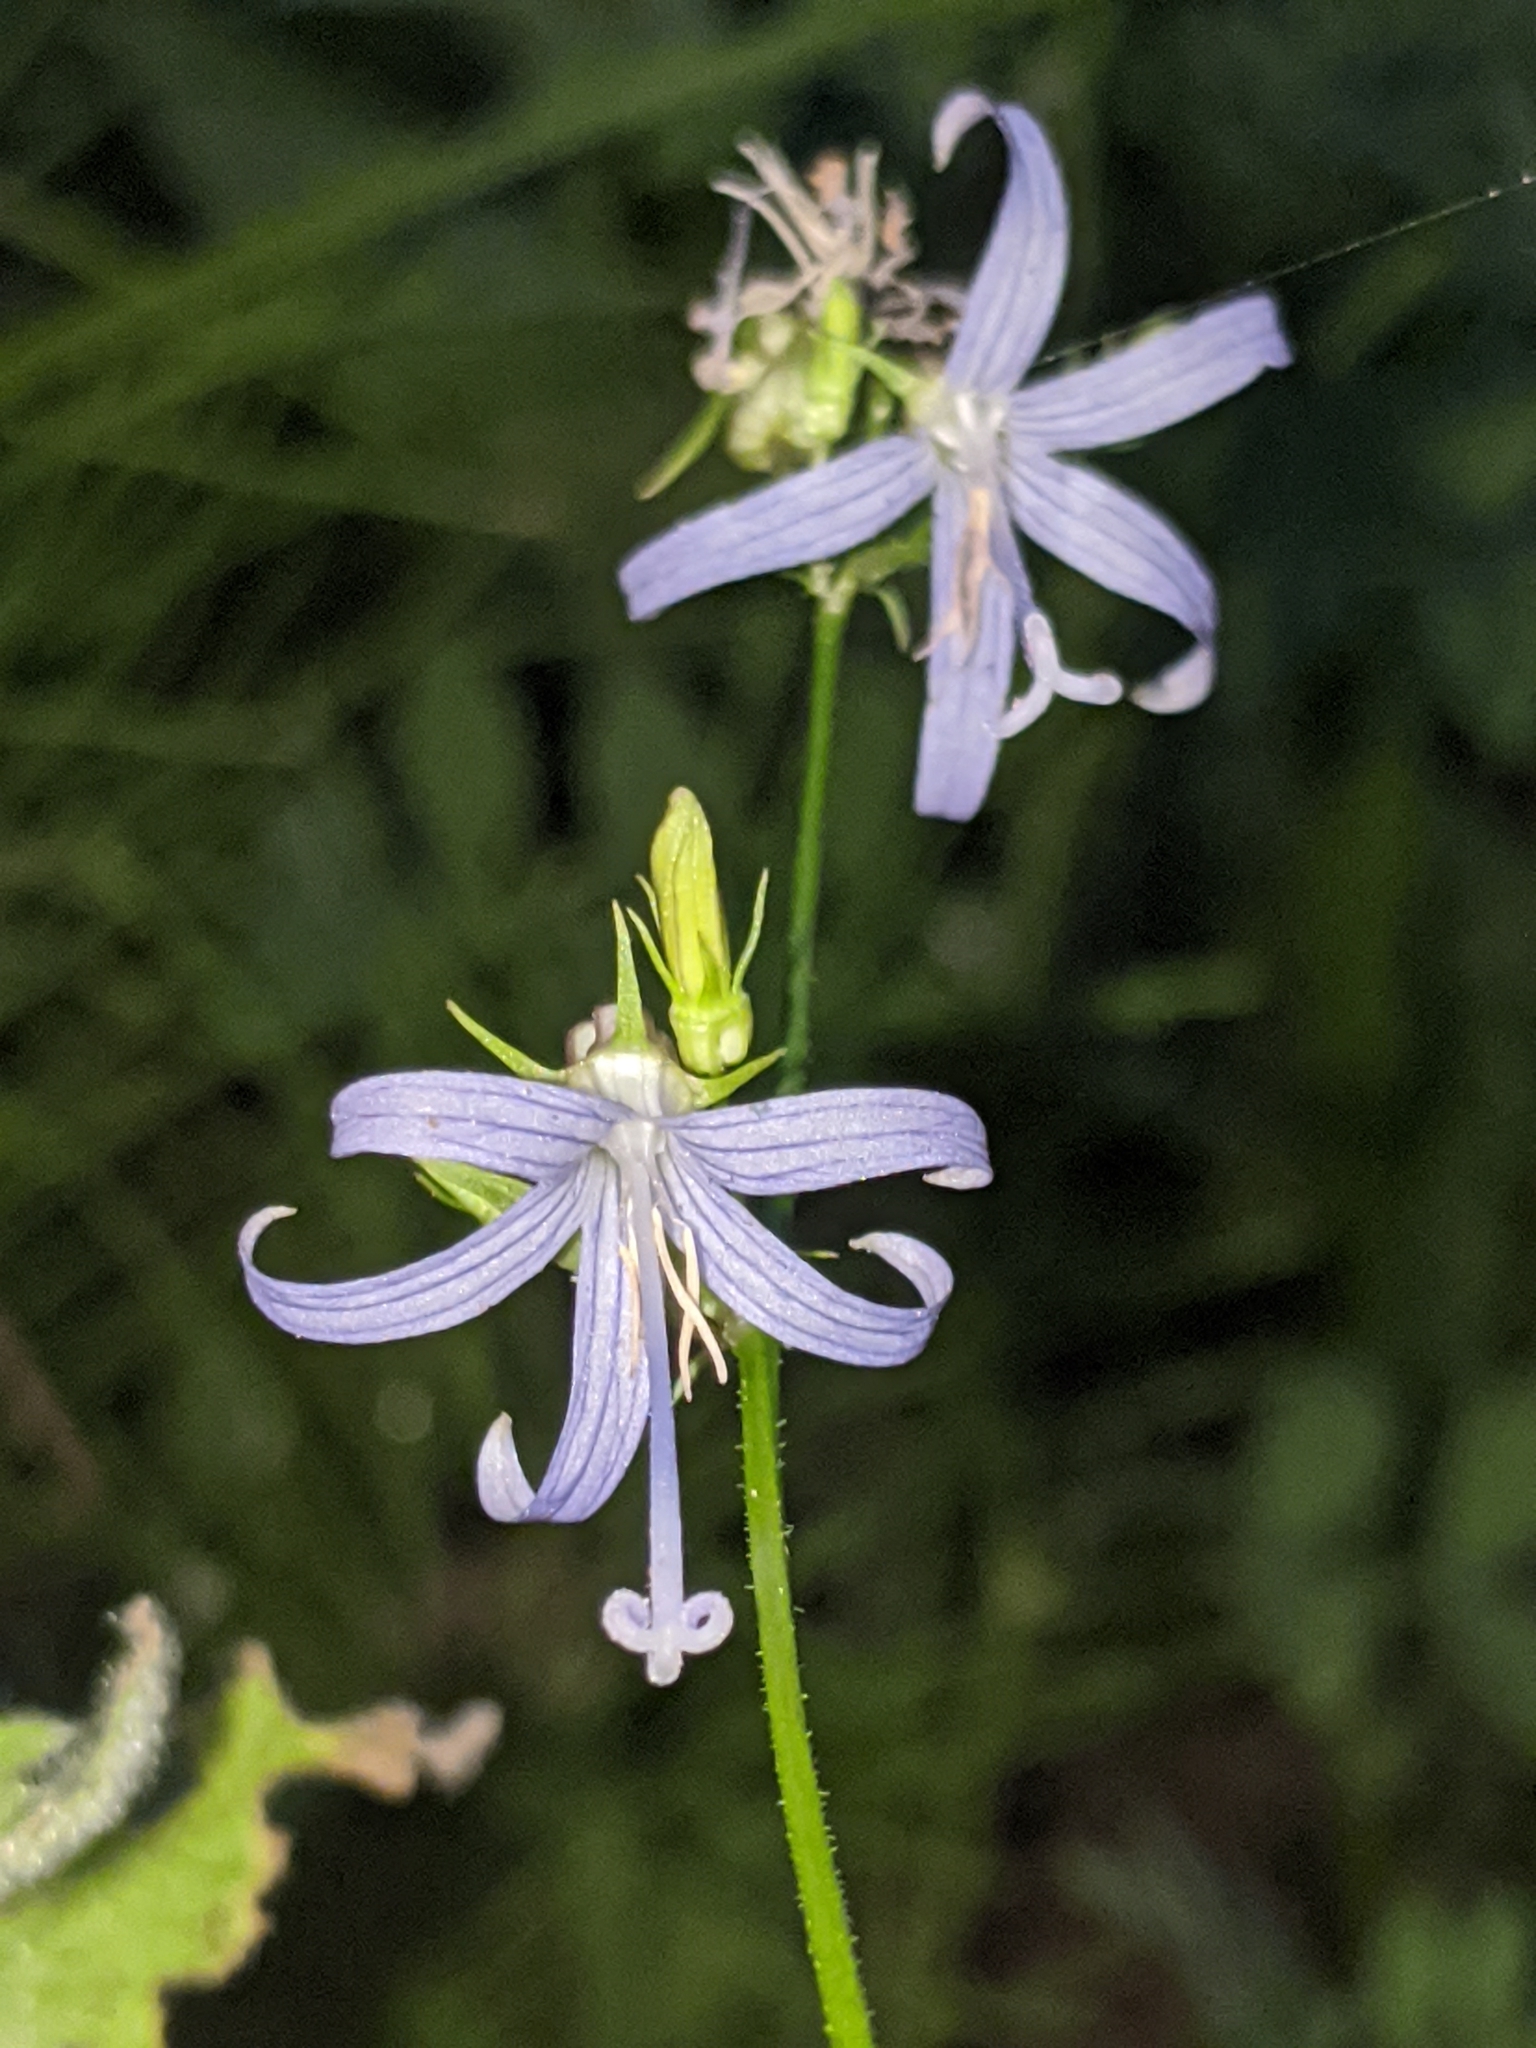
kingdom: Plantae
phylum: Tracheophyta
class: Magnoliopsida
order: Asterales
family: Campanulaceae
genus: Smithiastrum
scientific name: Smithiastrum prenanthoides
